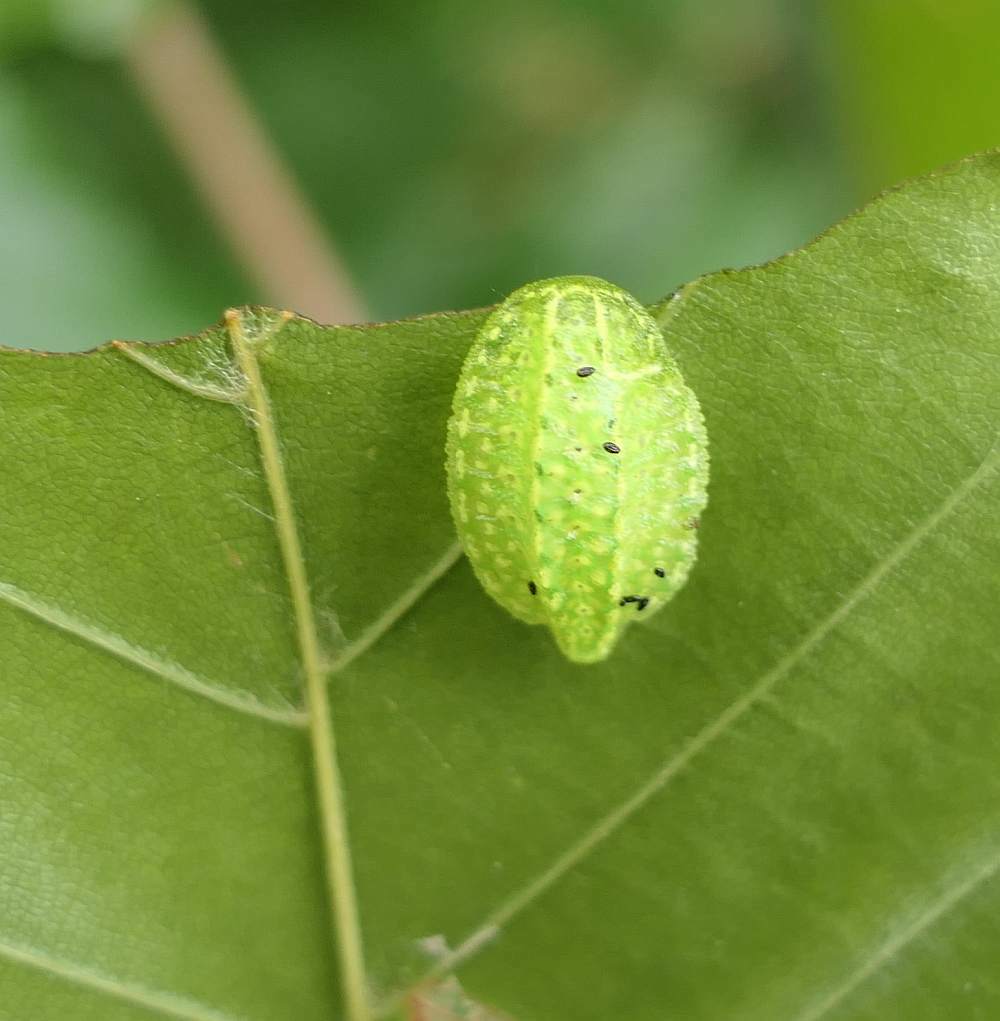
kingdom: Animalia
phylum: Arthropoda
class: Insecta
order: Lepidoptera
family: Limacodidae
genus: Lithacodes
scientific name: Lithacodes fasciola
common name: Yellow-shouldered slug moth
